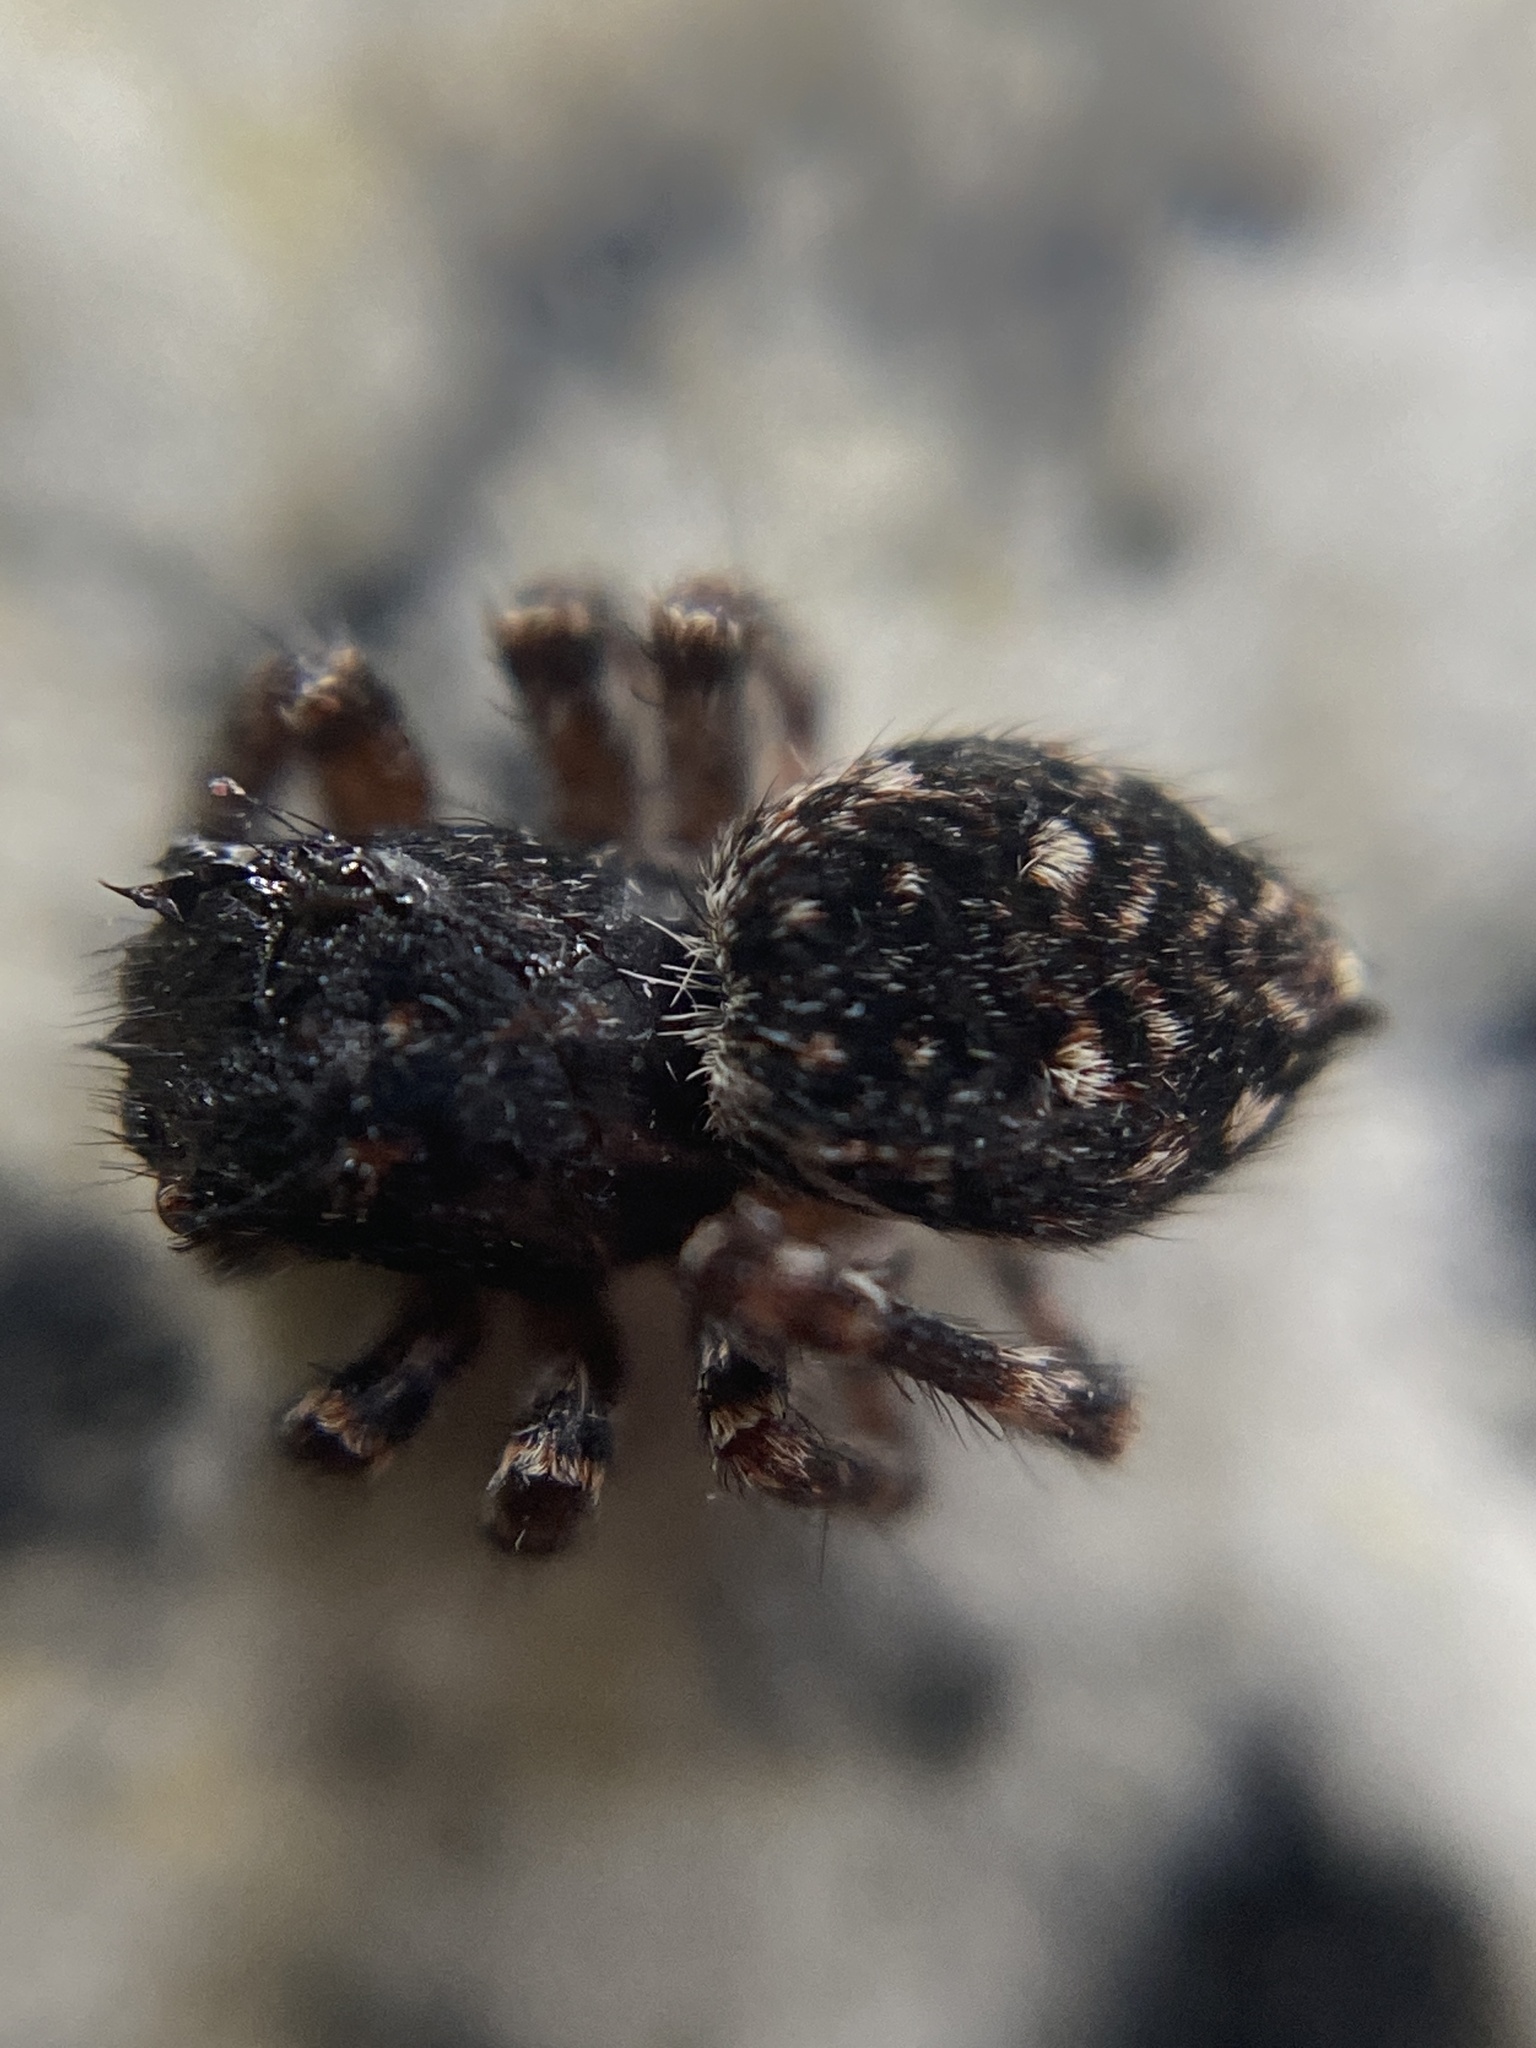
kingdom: Animalia
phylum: Arthropoda
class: Arachnida
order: Araneae
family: Salticidae
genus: Attulus
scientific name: Attulus pubescens
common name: Jumping spider
